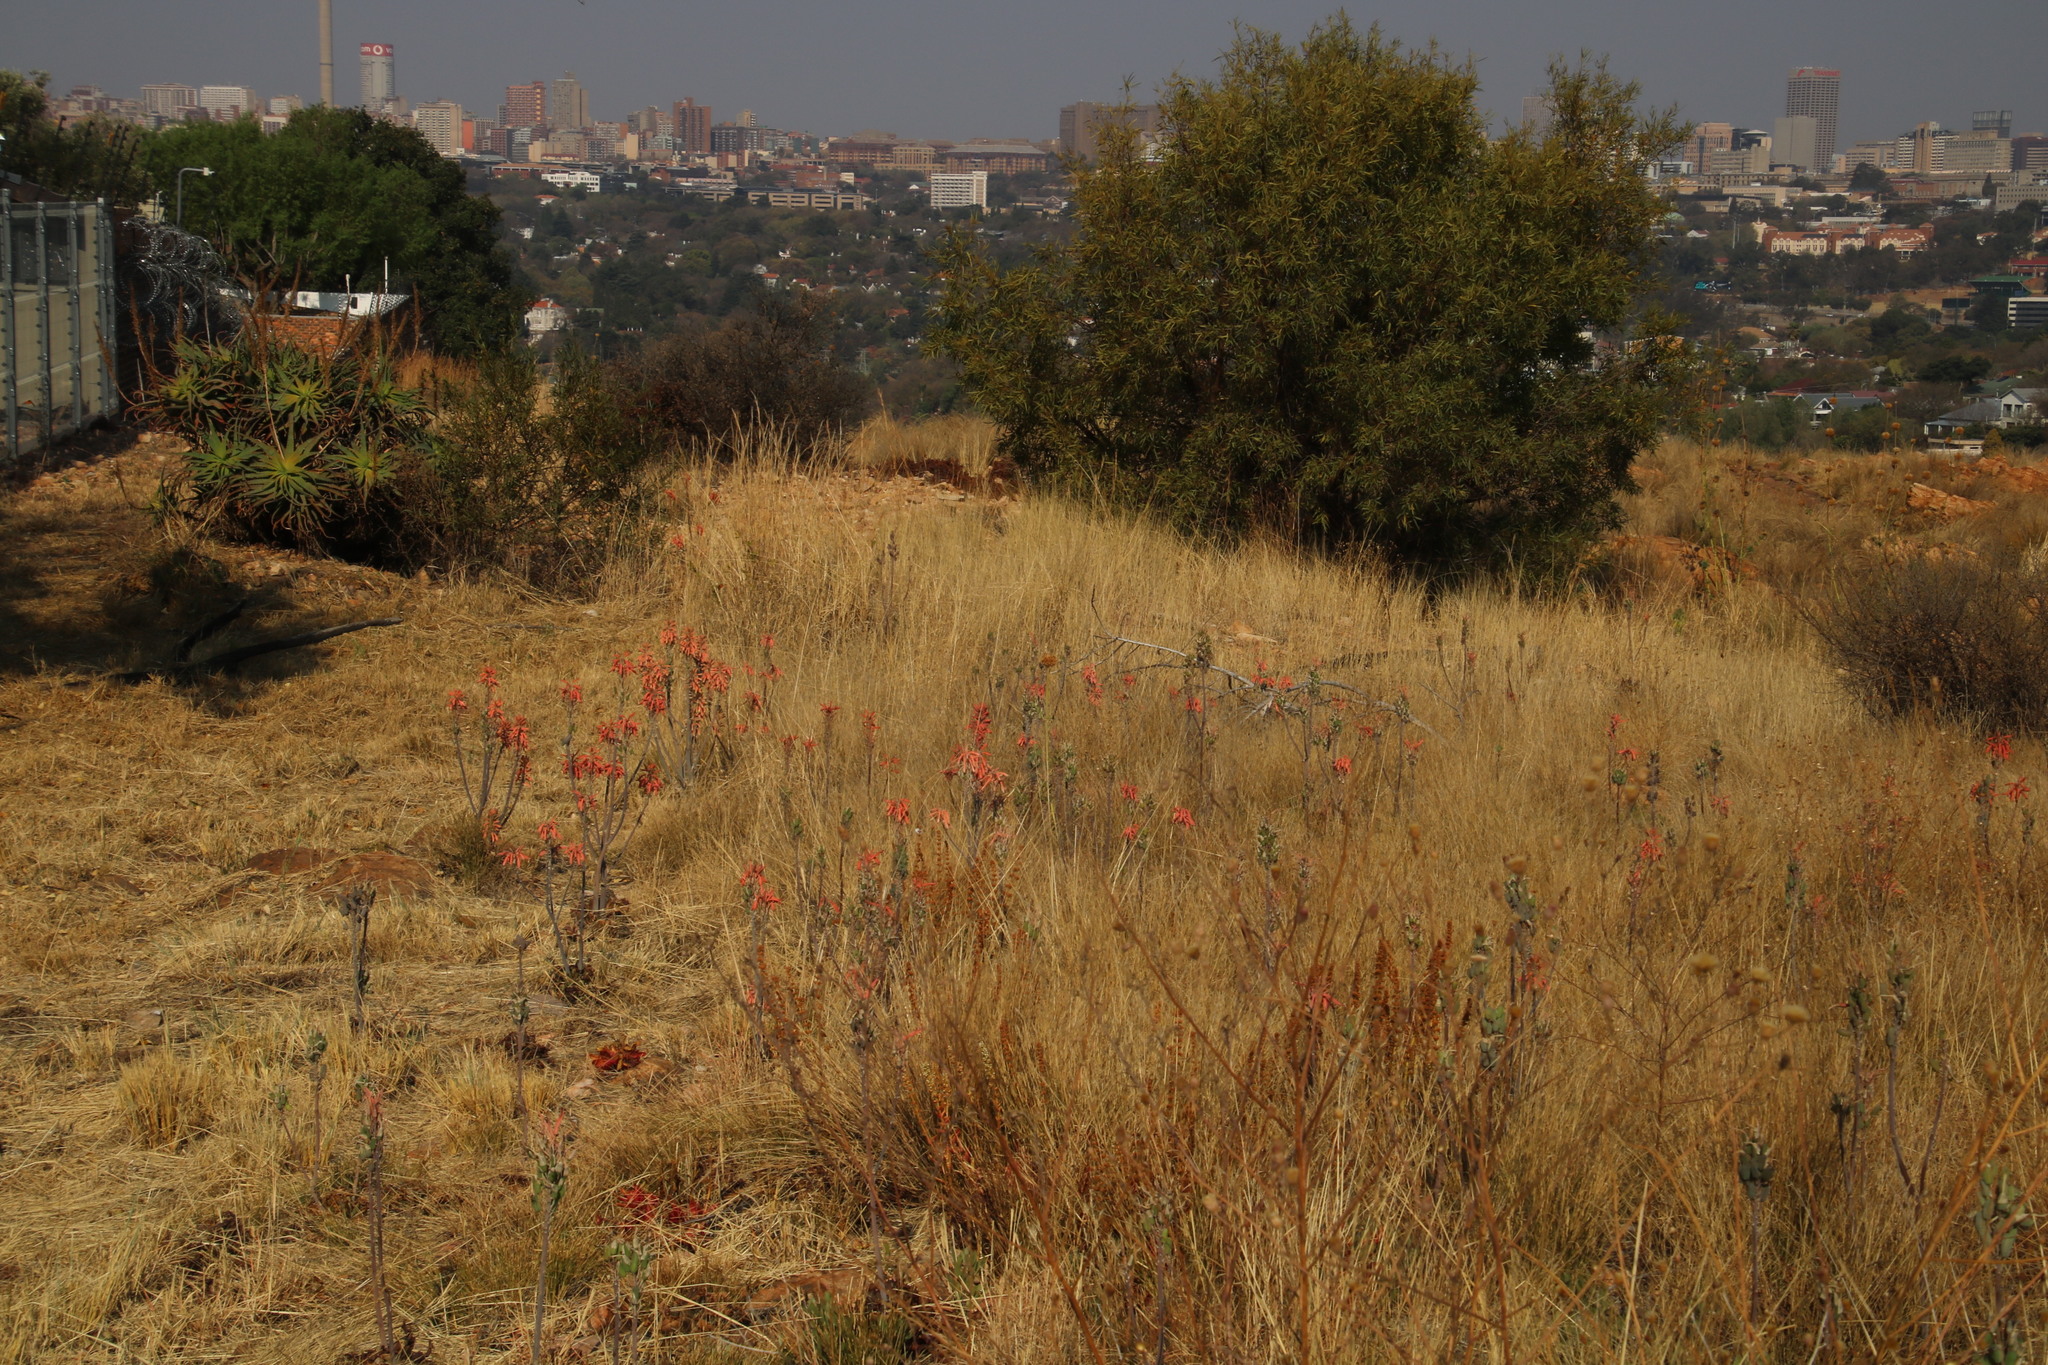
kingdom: Plantae
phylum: Tracheophyta
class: Liliopsida
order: Asparagales
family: Asphodelaceae
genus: Aloe
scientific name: Aloe davyana
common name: Spotted aloe
